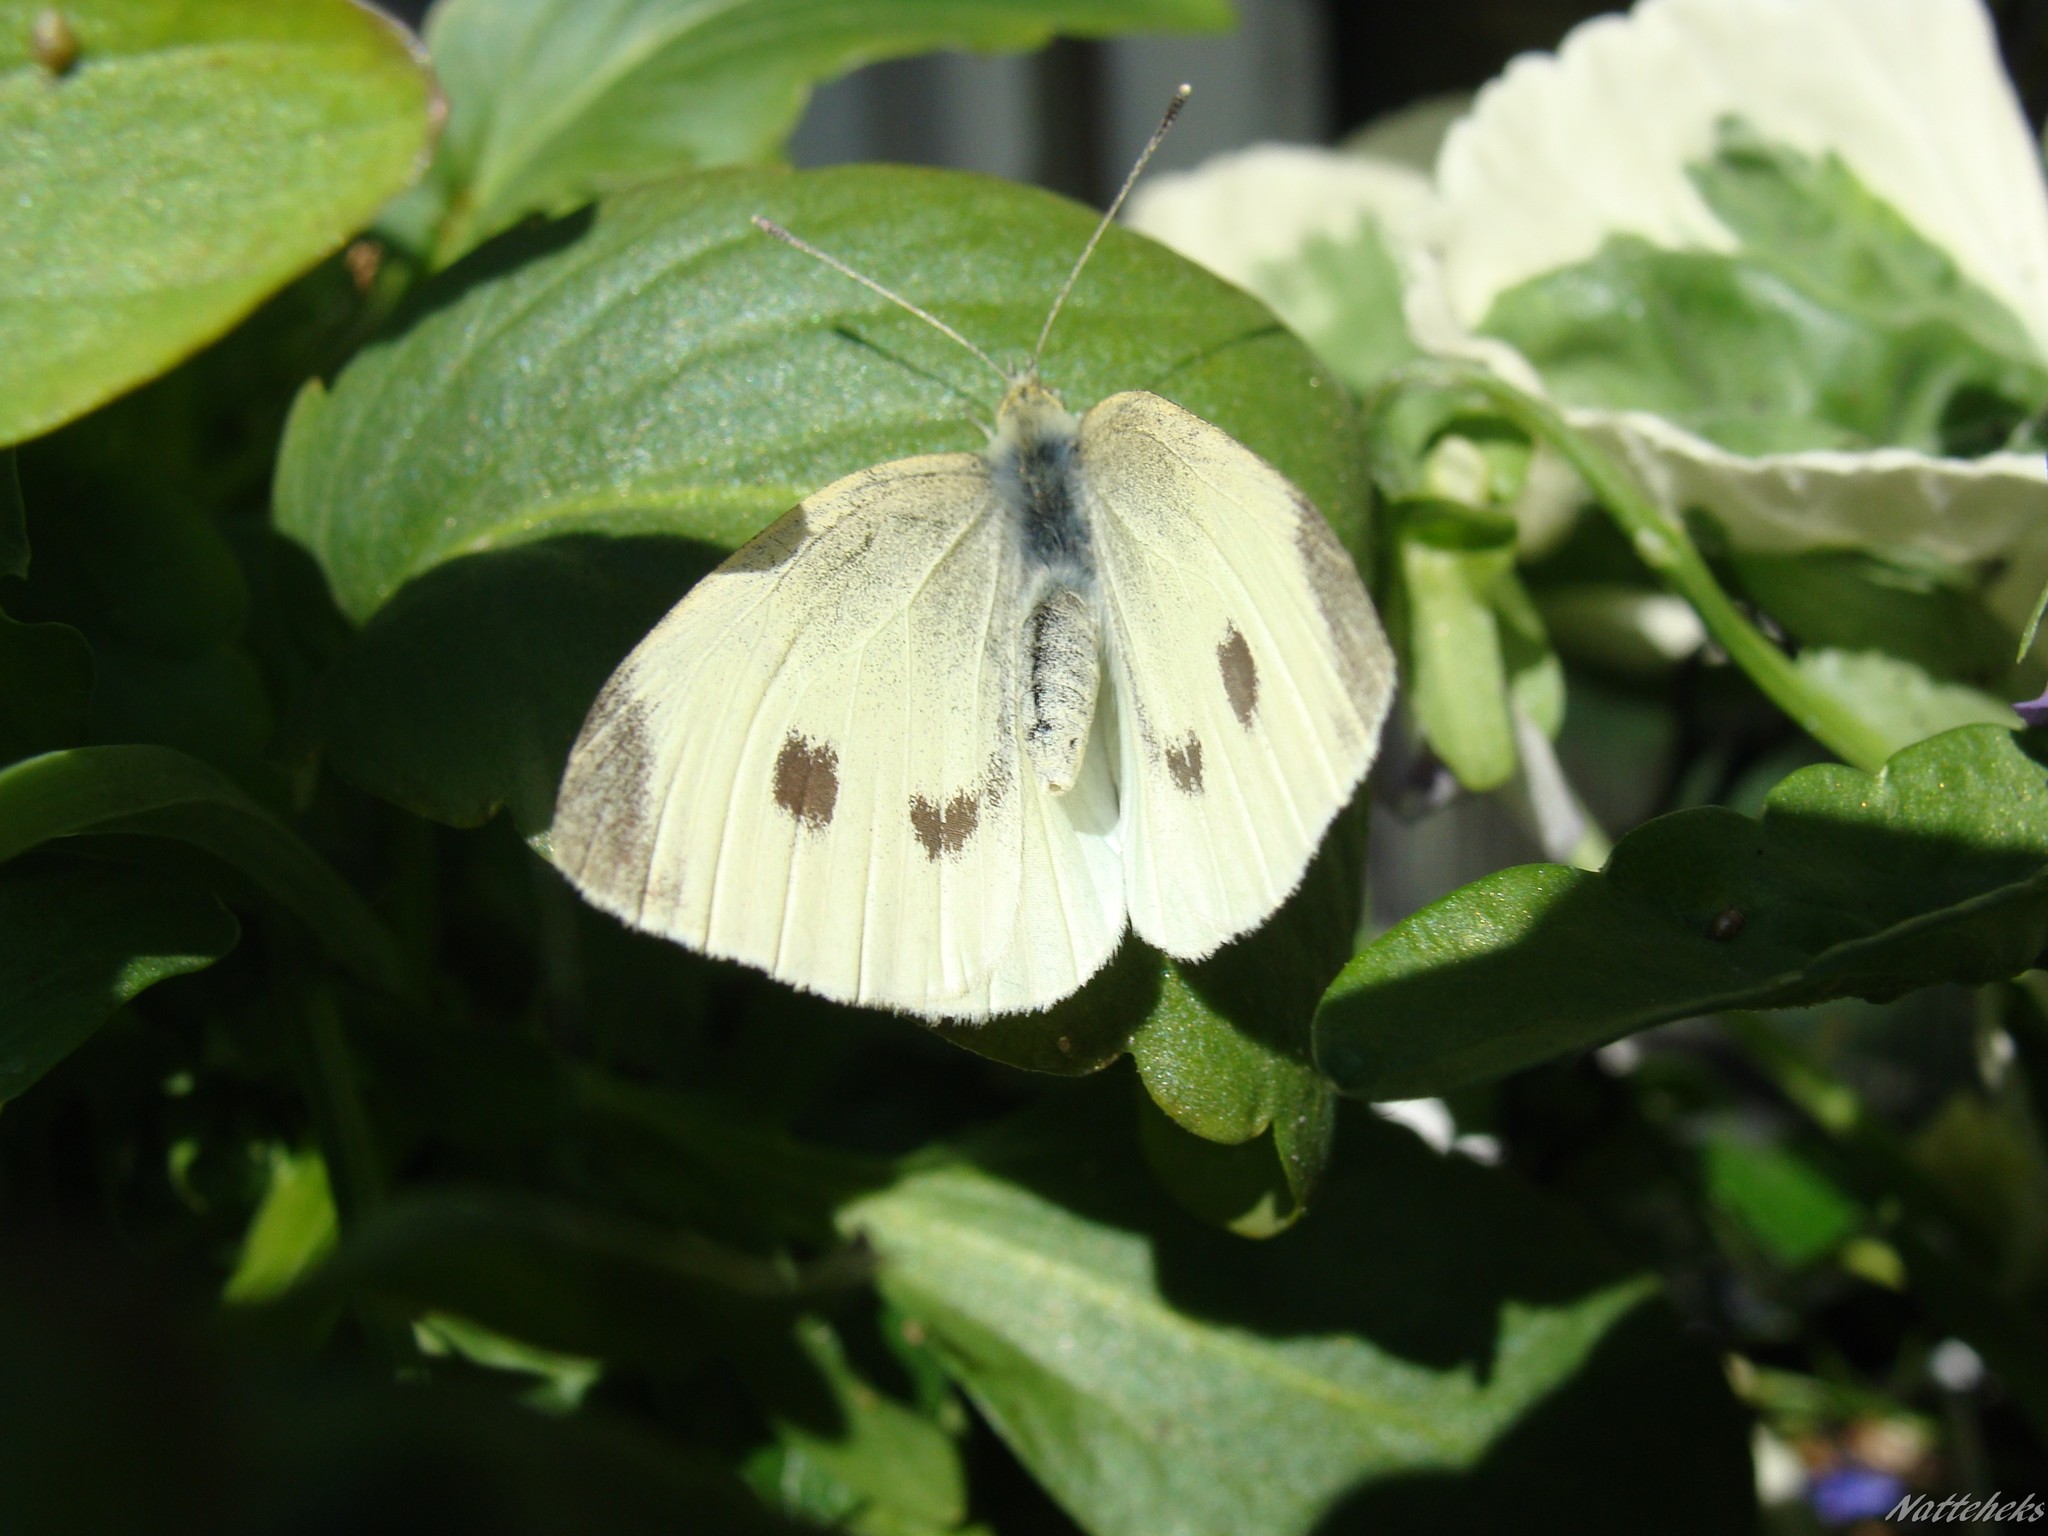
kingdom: Animalia
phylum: Arthropoda
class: Insecta
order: Lepidoptera
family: Pieridae
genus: Pieris
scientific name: Pieris rapae
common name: Small white
